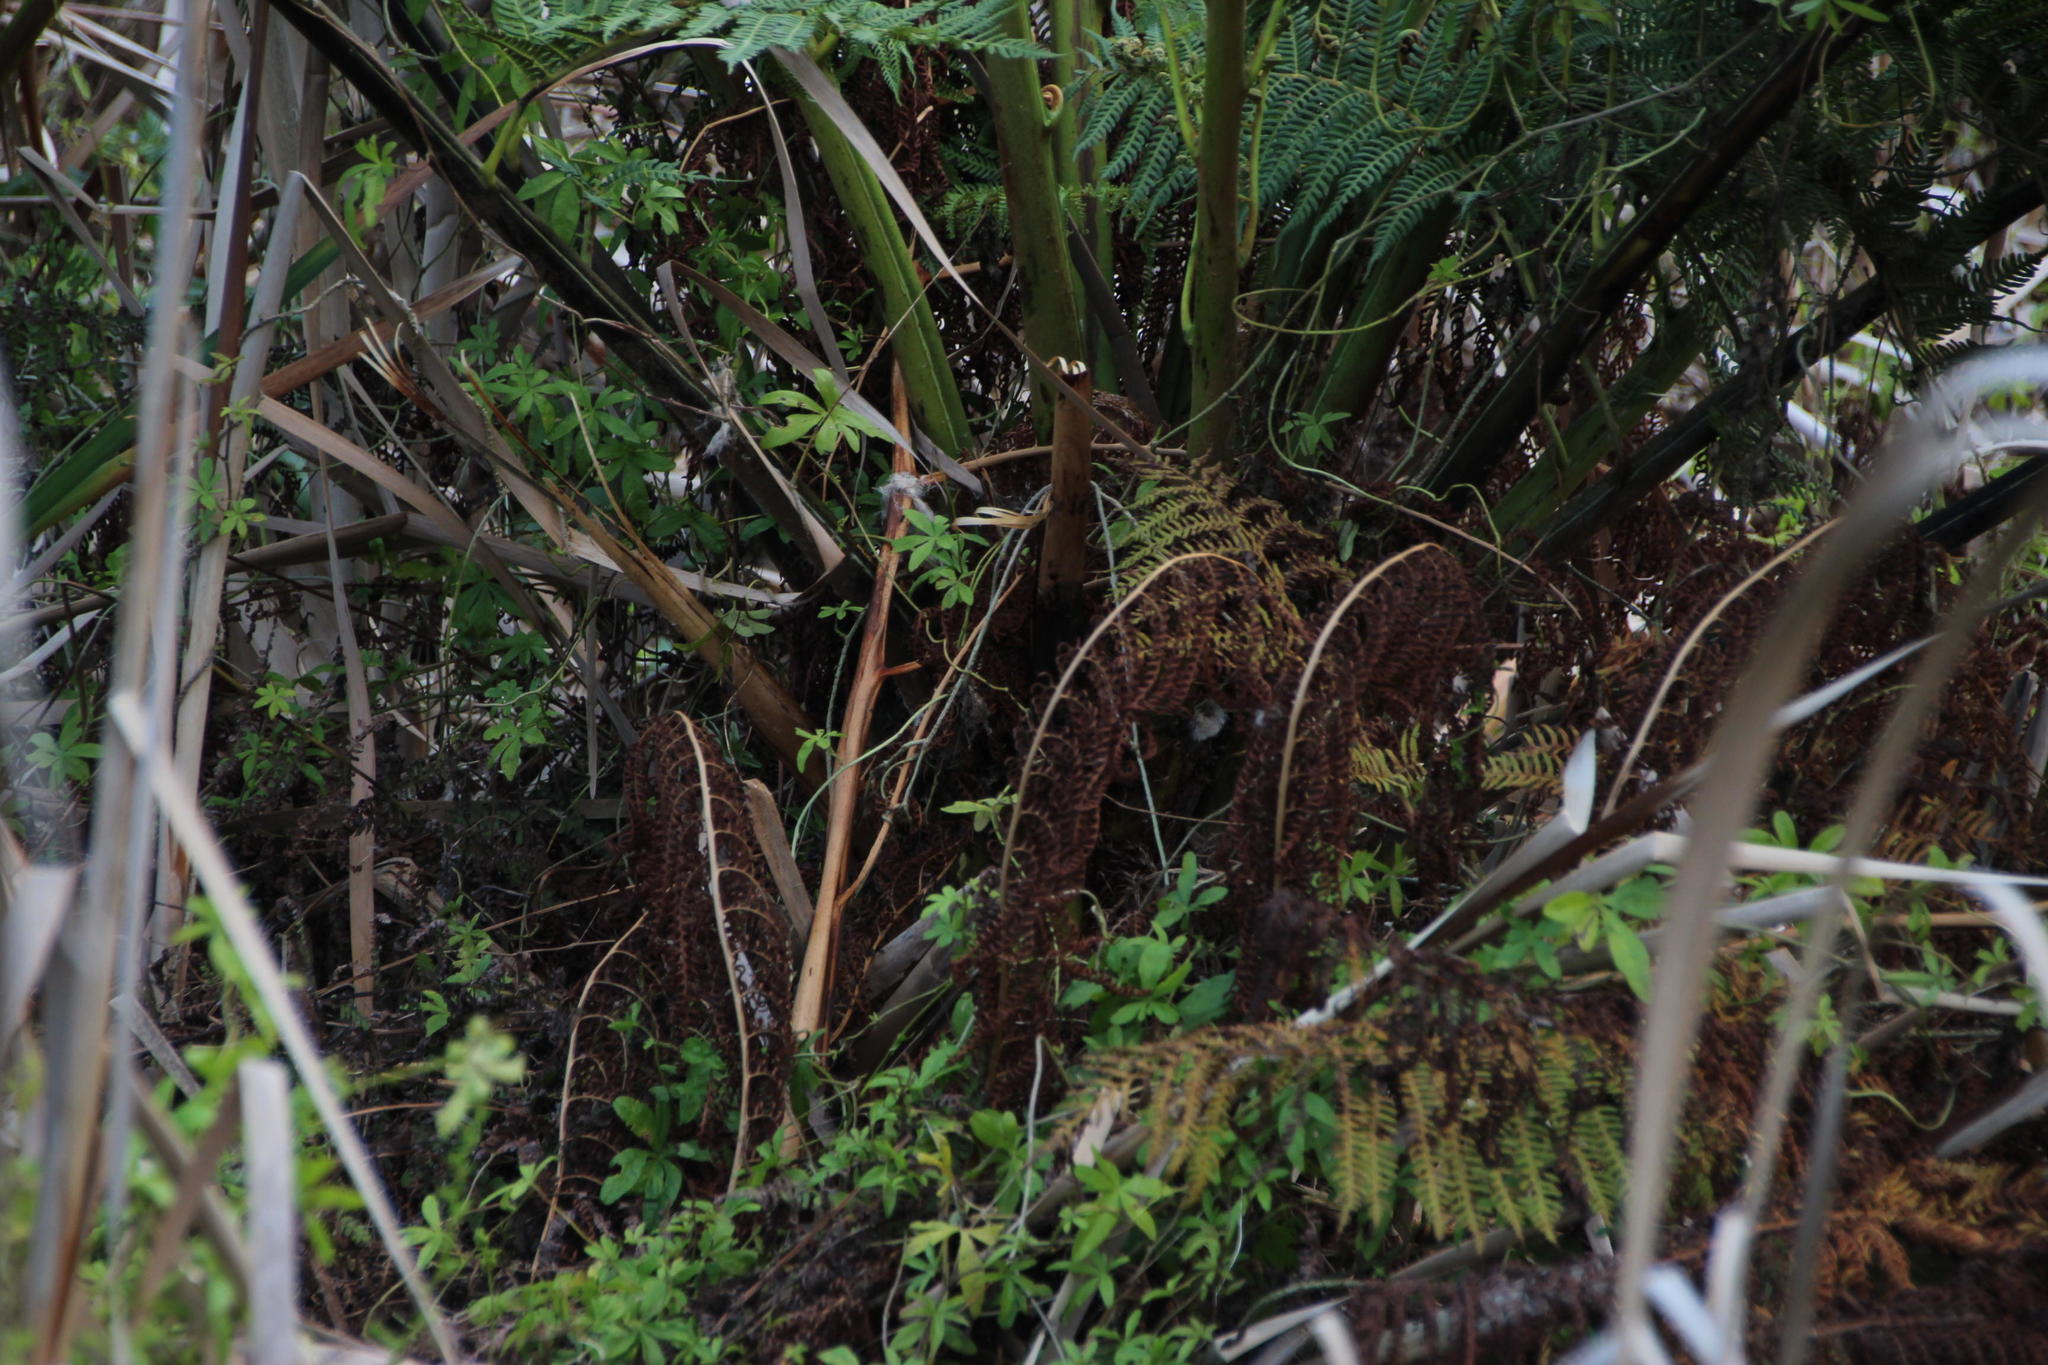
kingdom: Plantae
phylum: Tracheophyta
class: Polypodiopsida
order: Cyatheales
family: Cyatheaceae
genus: Sphaeropteris
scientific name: Sphaeropteris cooperi
